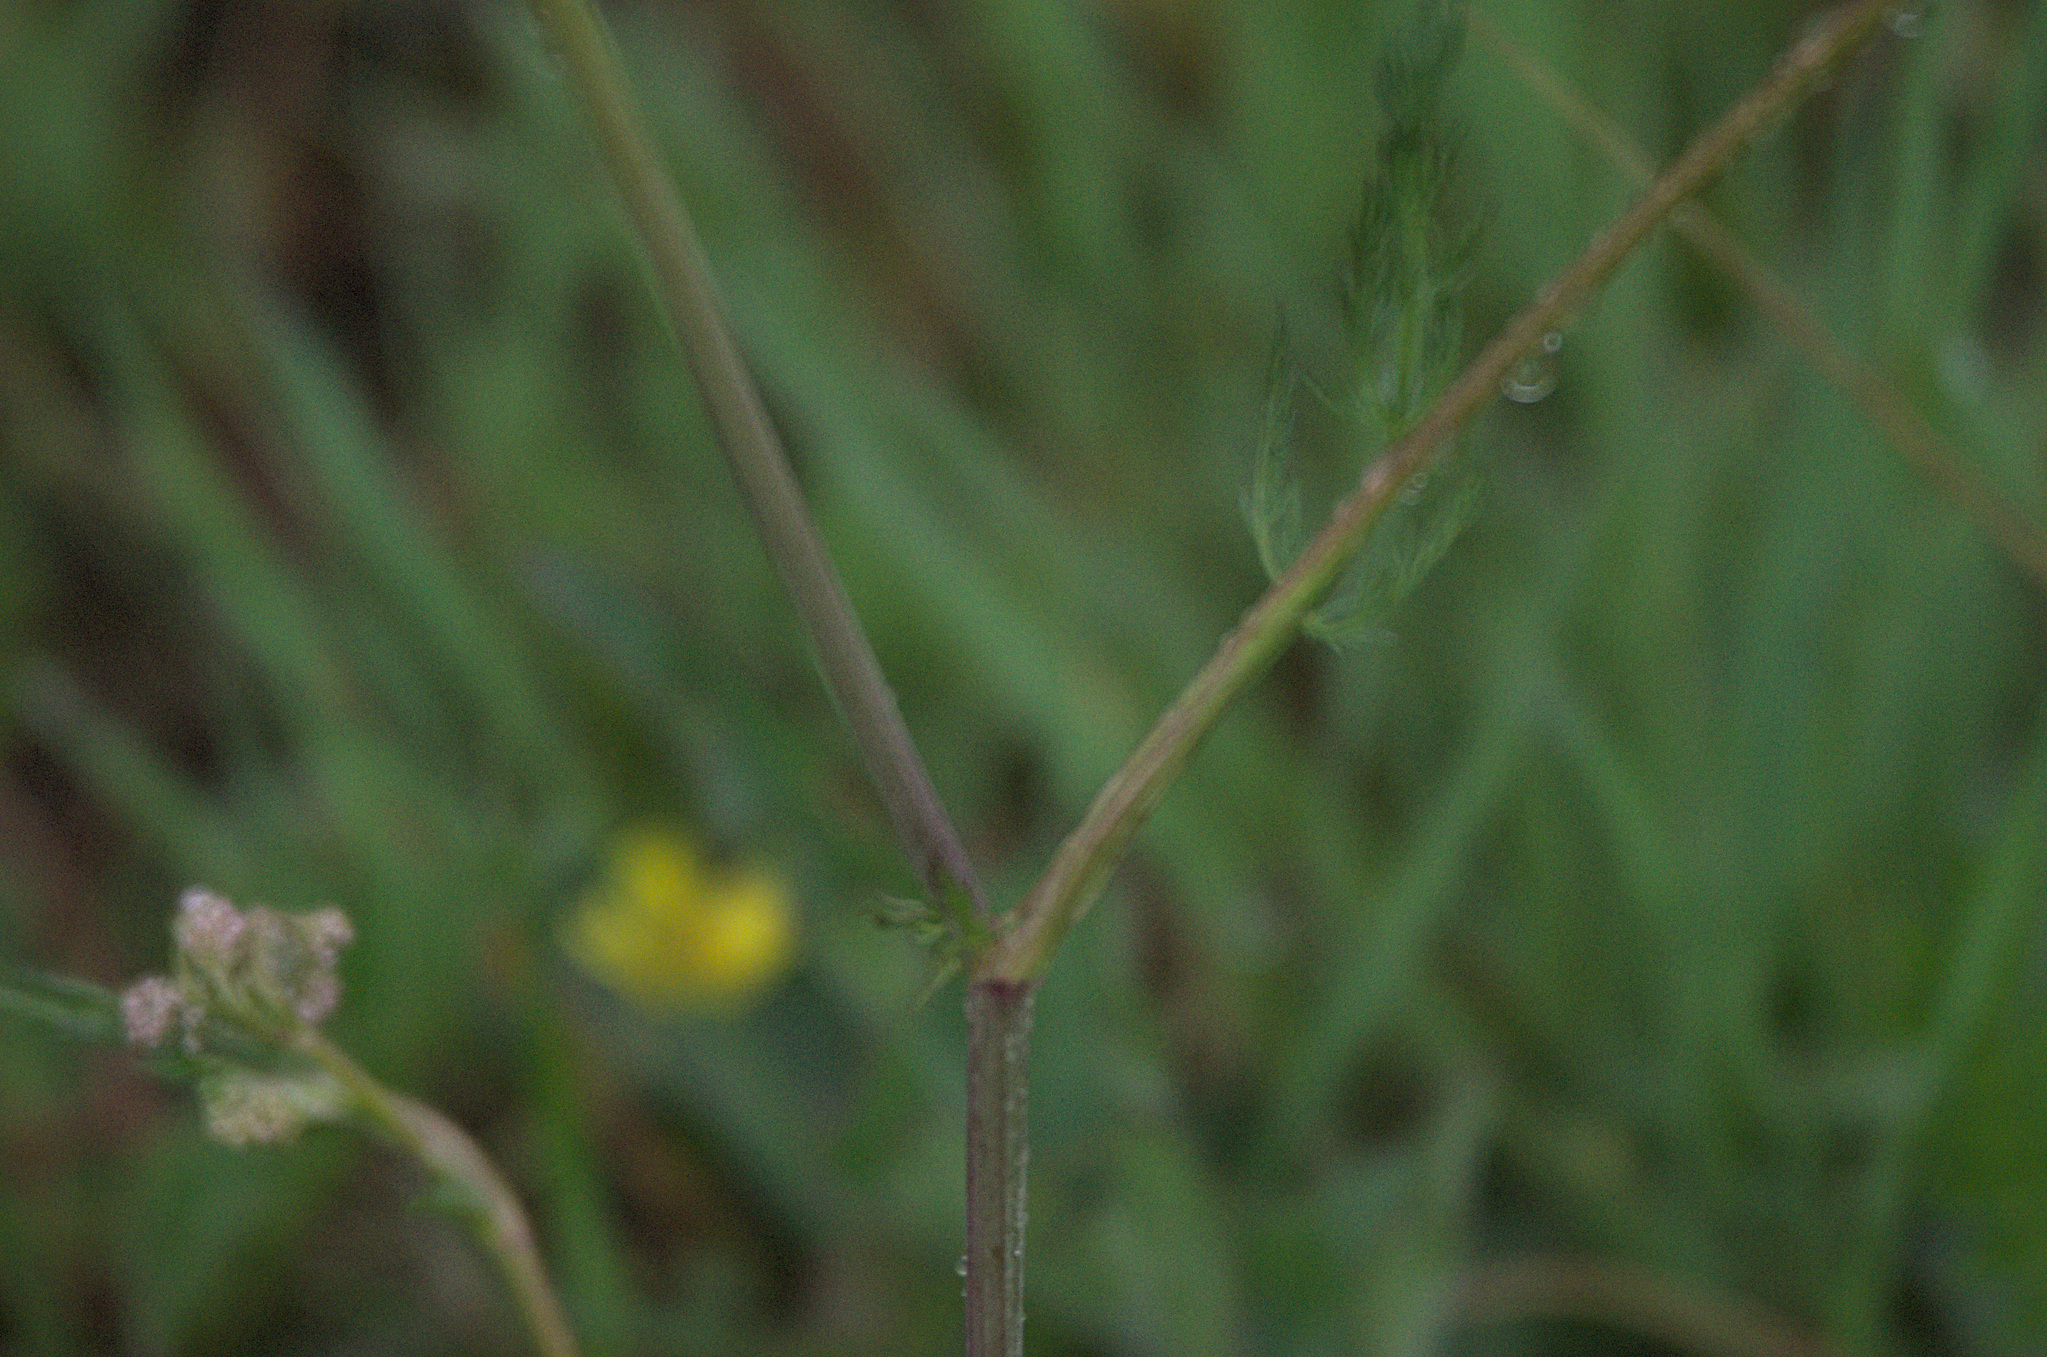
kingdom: Plantae
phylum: Tracheophyta
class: Magnoliopsida
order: Apiales
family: Apiaceae
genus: Carum
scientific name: Carum carvi
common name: Caraway
